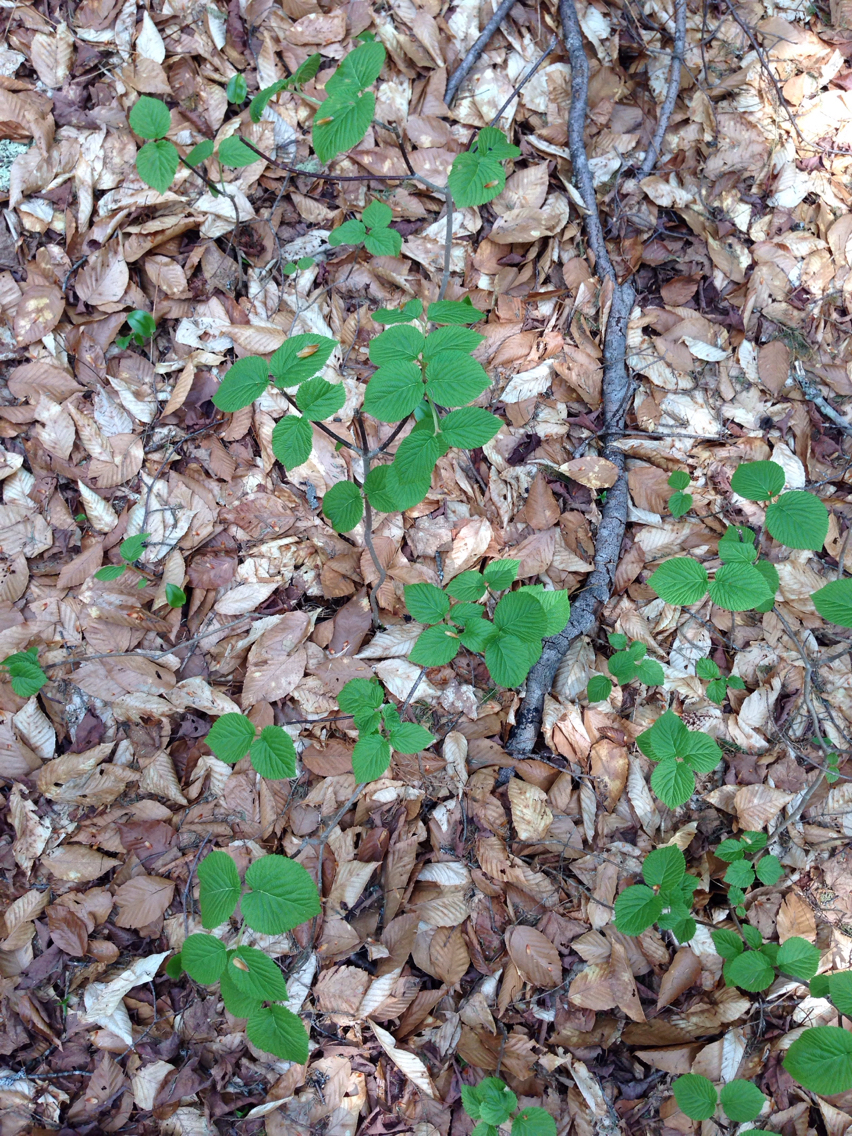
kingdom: Plantae
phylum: Tracheophyta
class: Magnoliopsida
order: Dipsacales
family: Viburnaceae
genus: Viburnum
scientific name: Viburnum lantanoides
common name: Hobblebush
